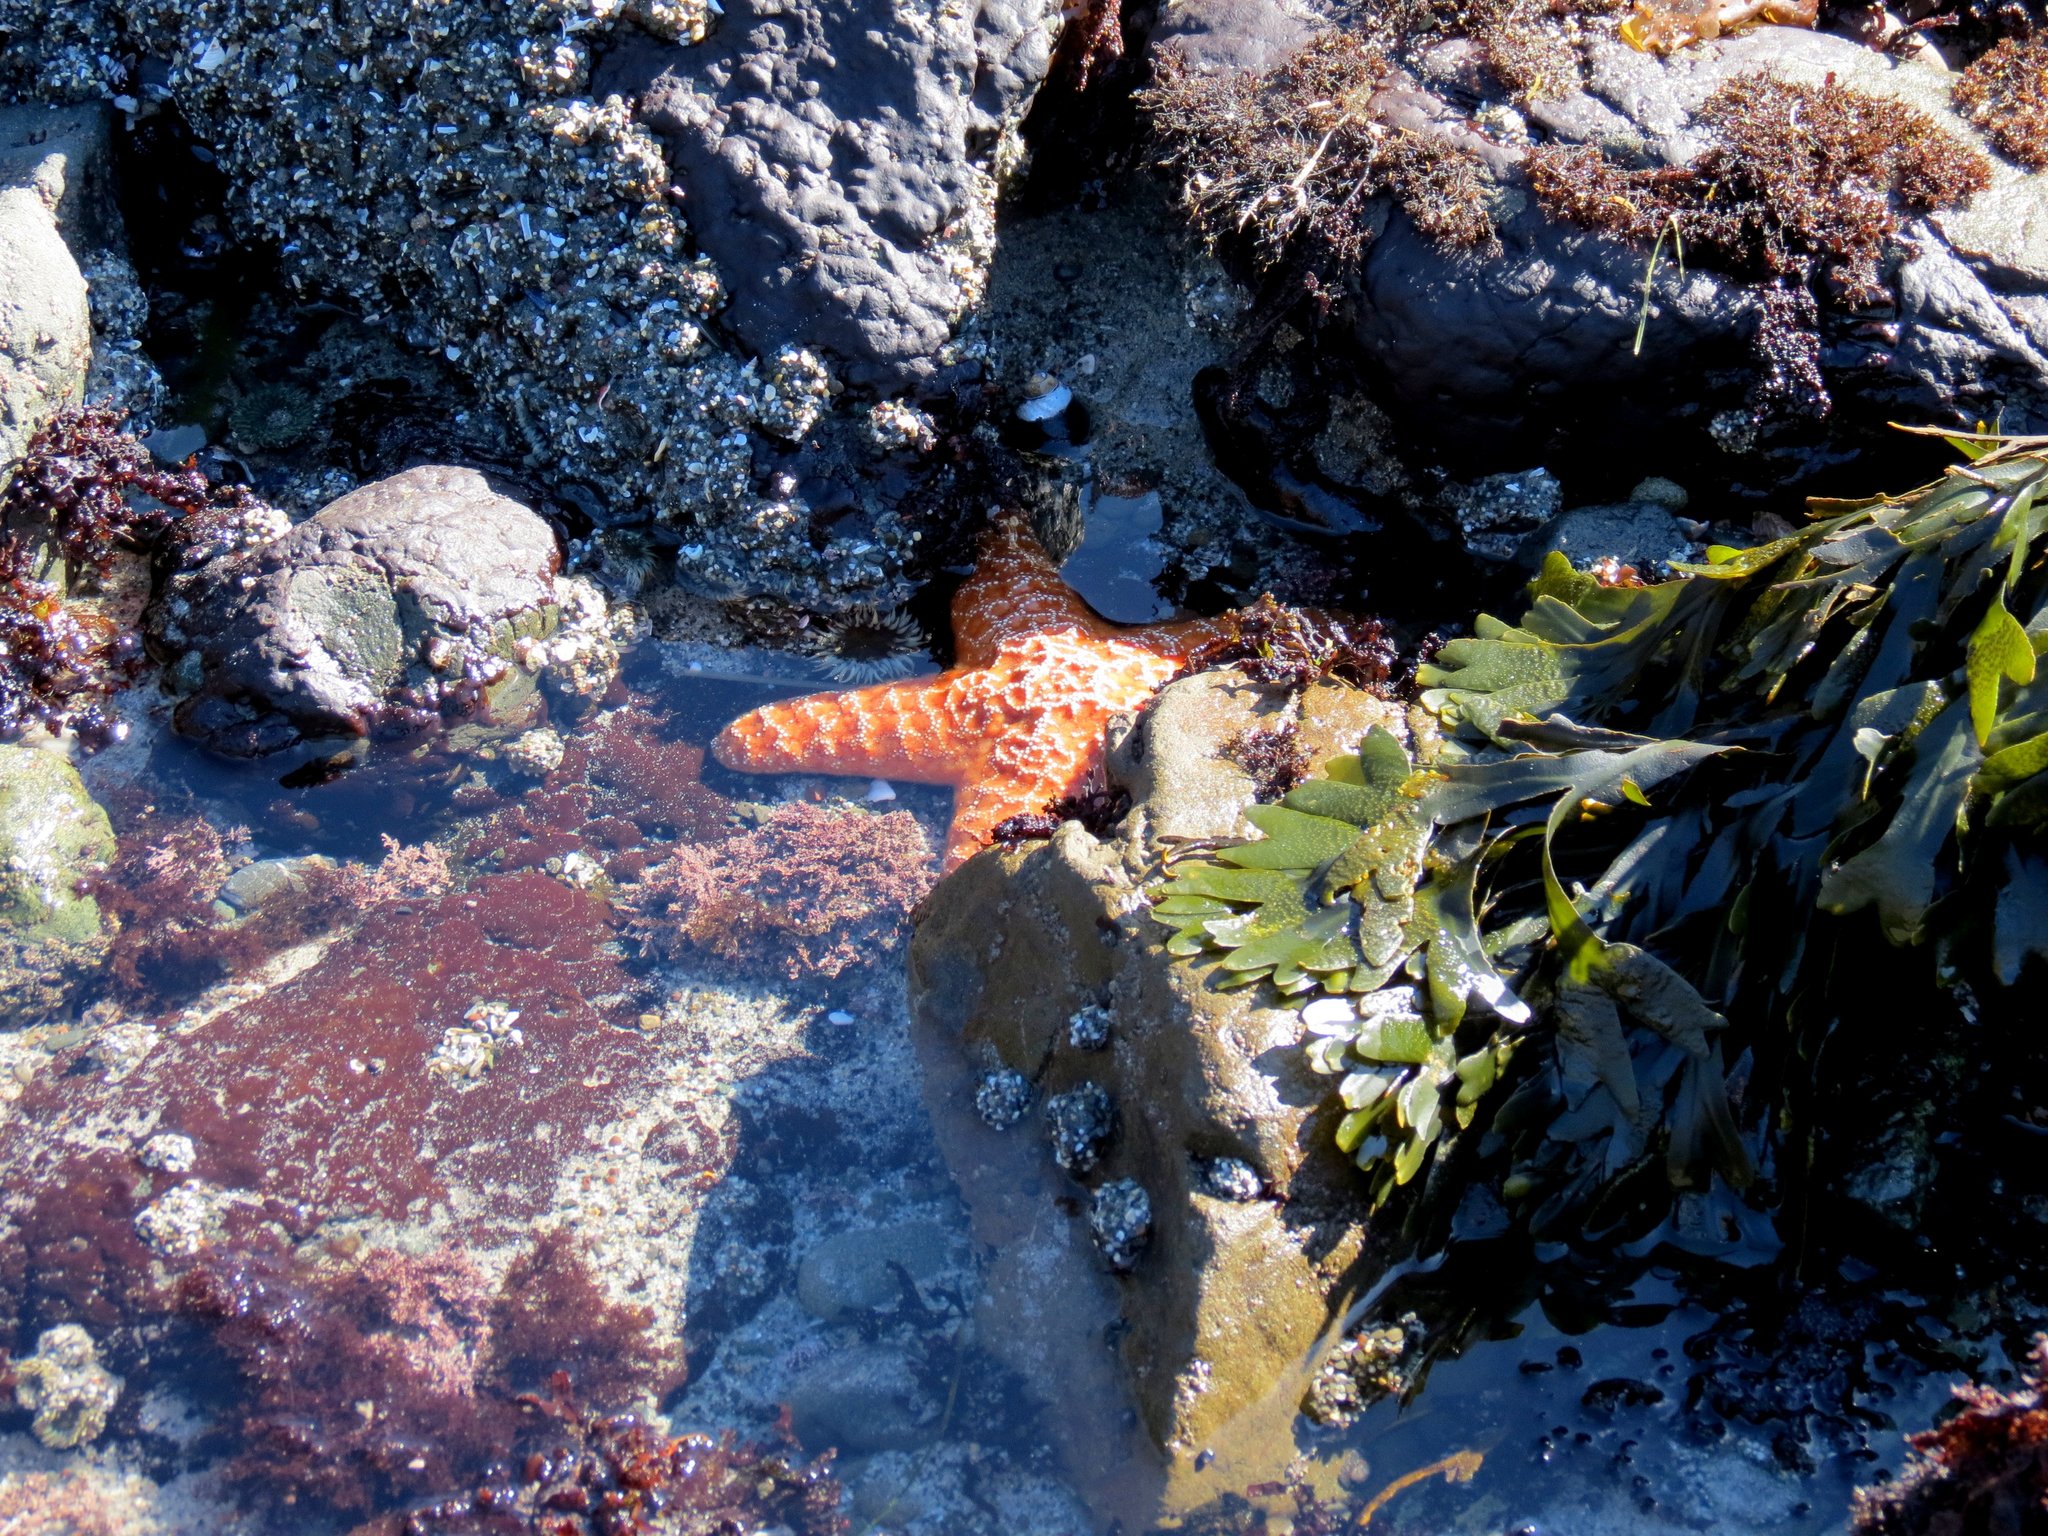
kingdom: Animalia
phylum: Echinodermata
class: Asteroidea
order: Forcipulatida
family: Asteriidae
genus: Pisaster
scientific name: Pisaster ochraceus
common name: Ochre stars
